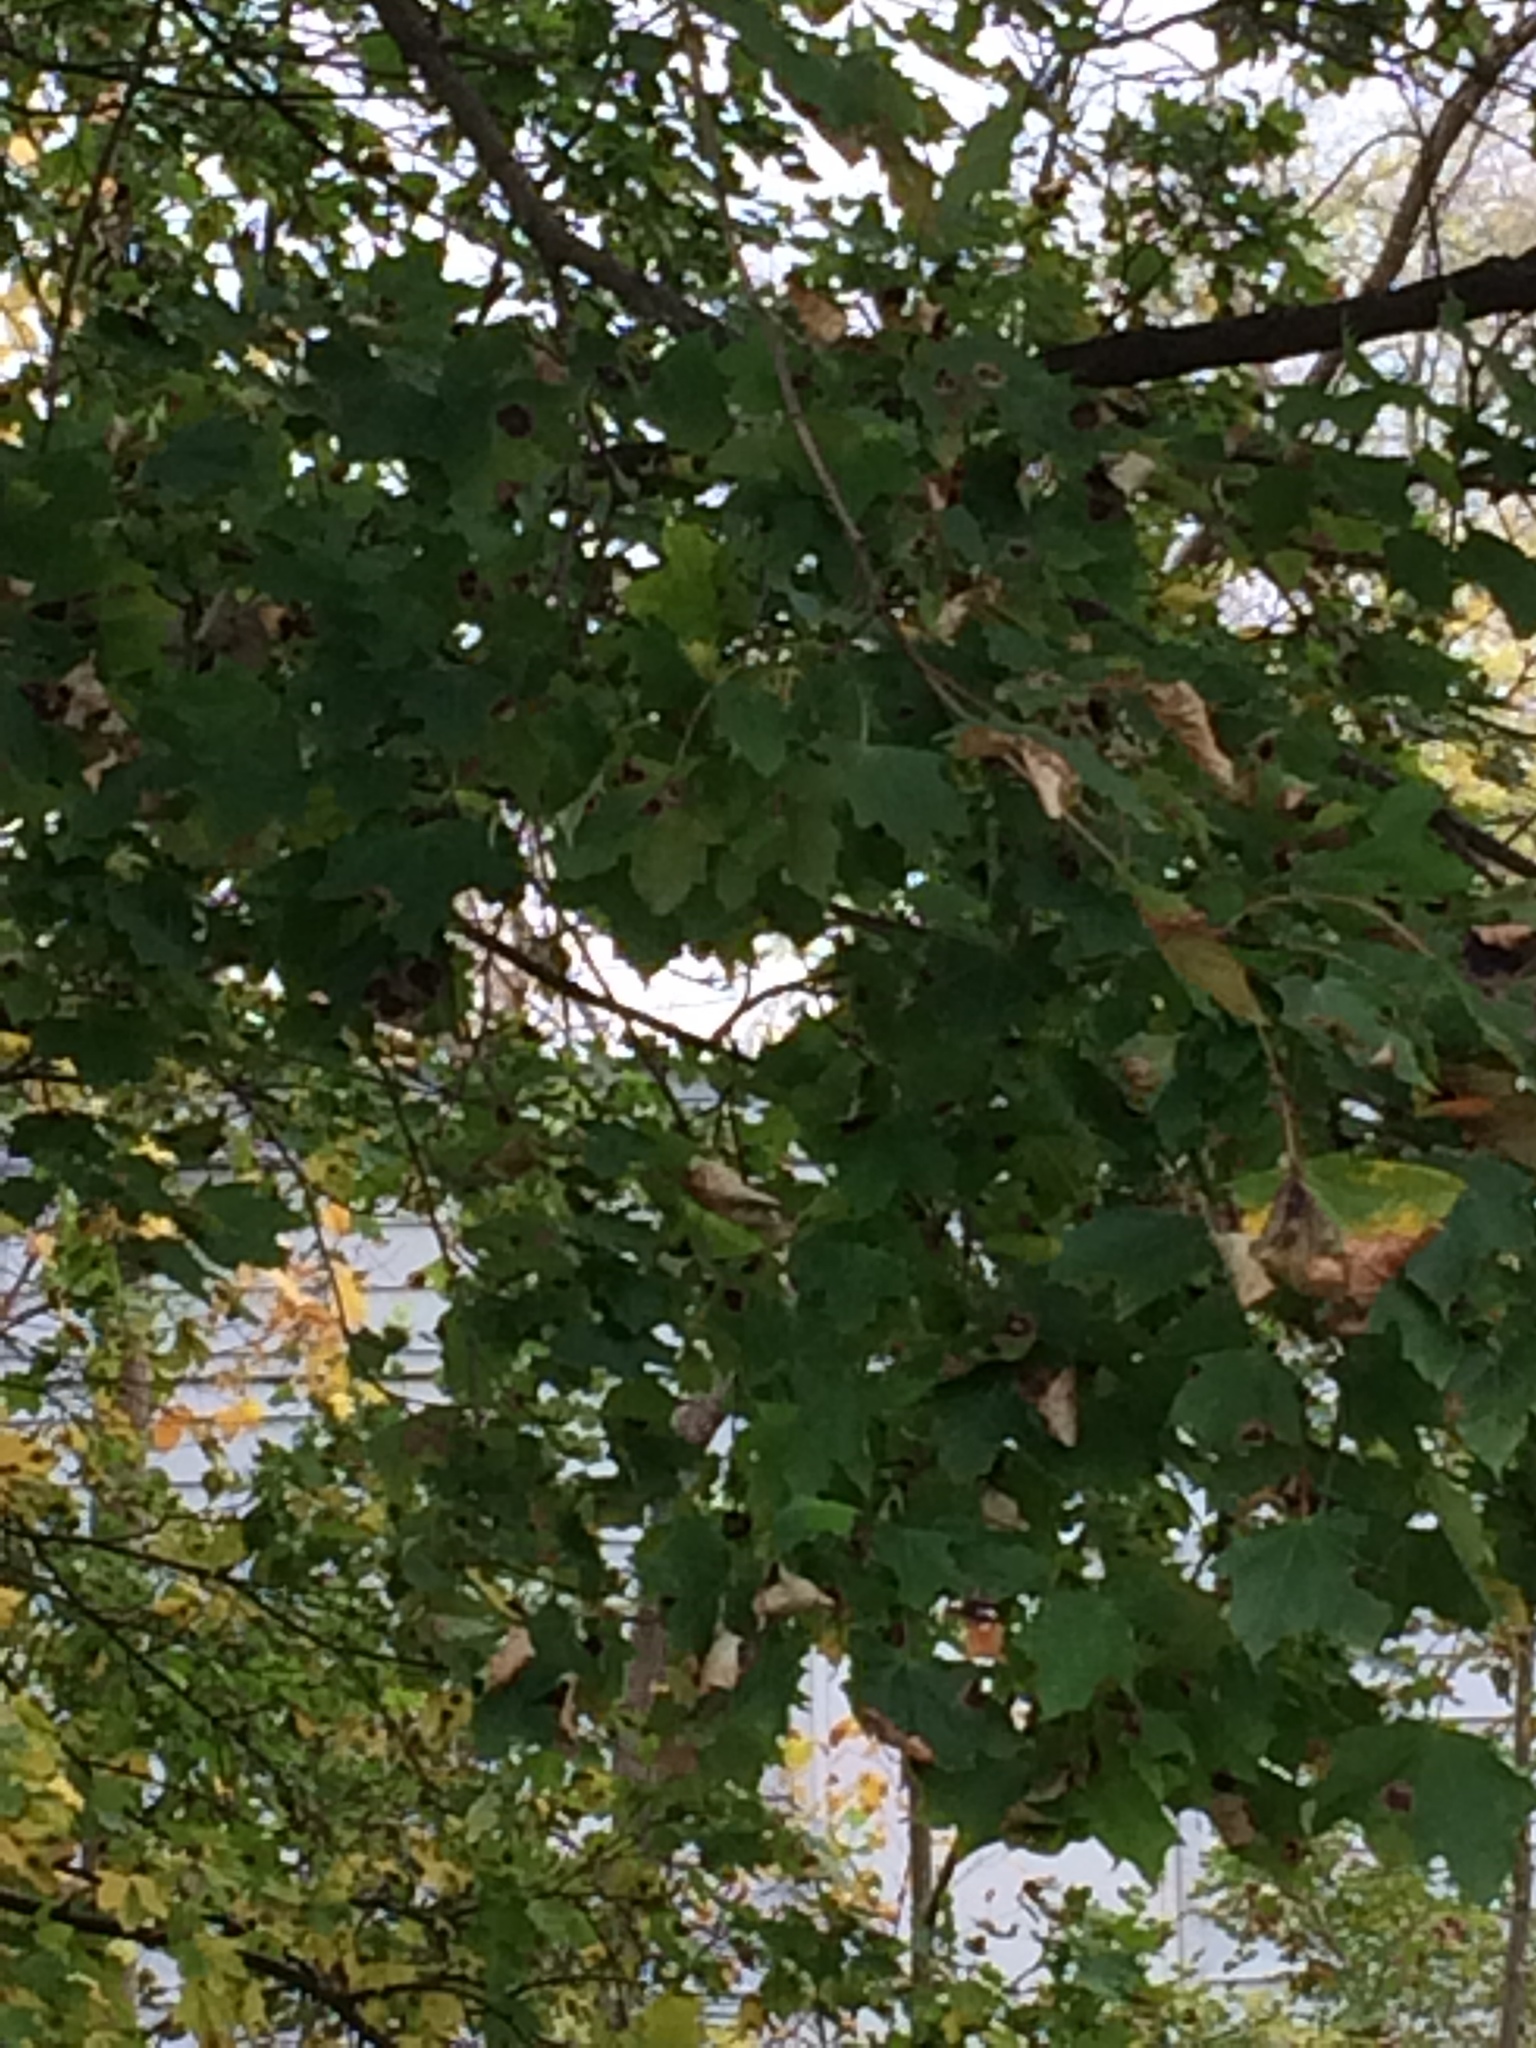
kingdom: Plantae
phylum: Tracheophyta
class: Magnoliopsida
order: Sapindales
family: Sapindaceae
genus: Acer
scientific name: Acer platanoides
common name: Norway maple
